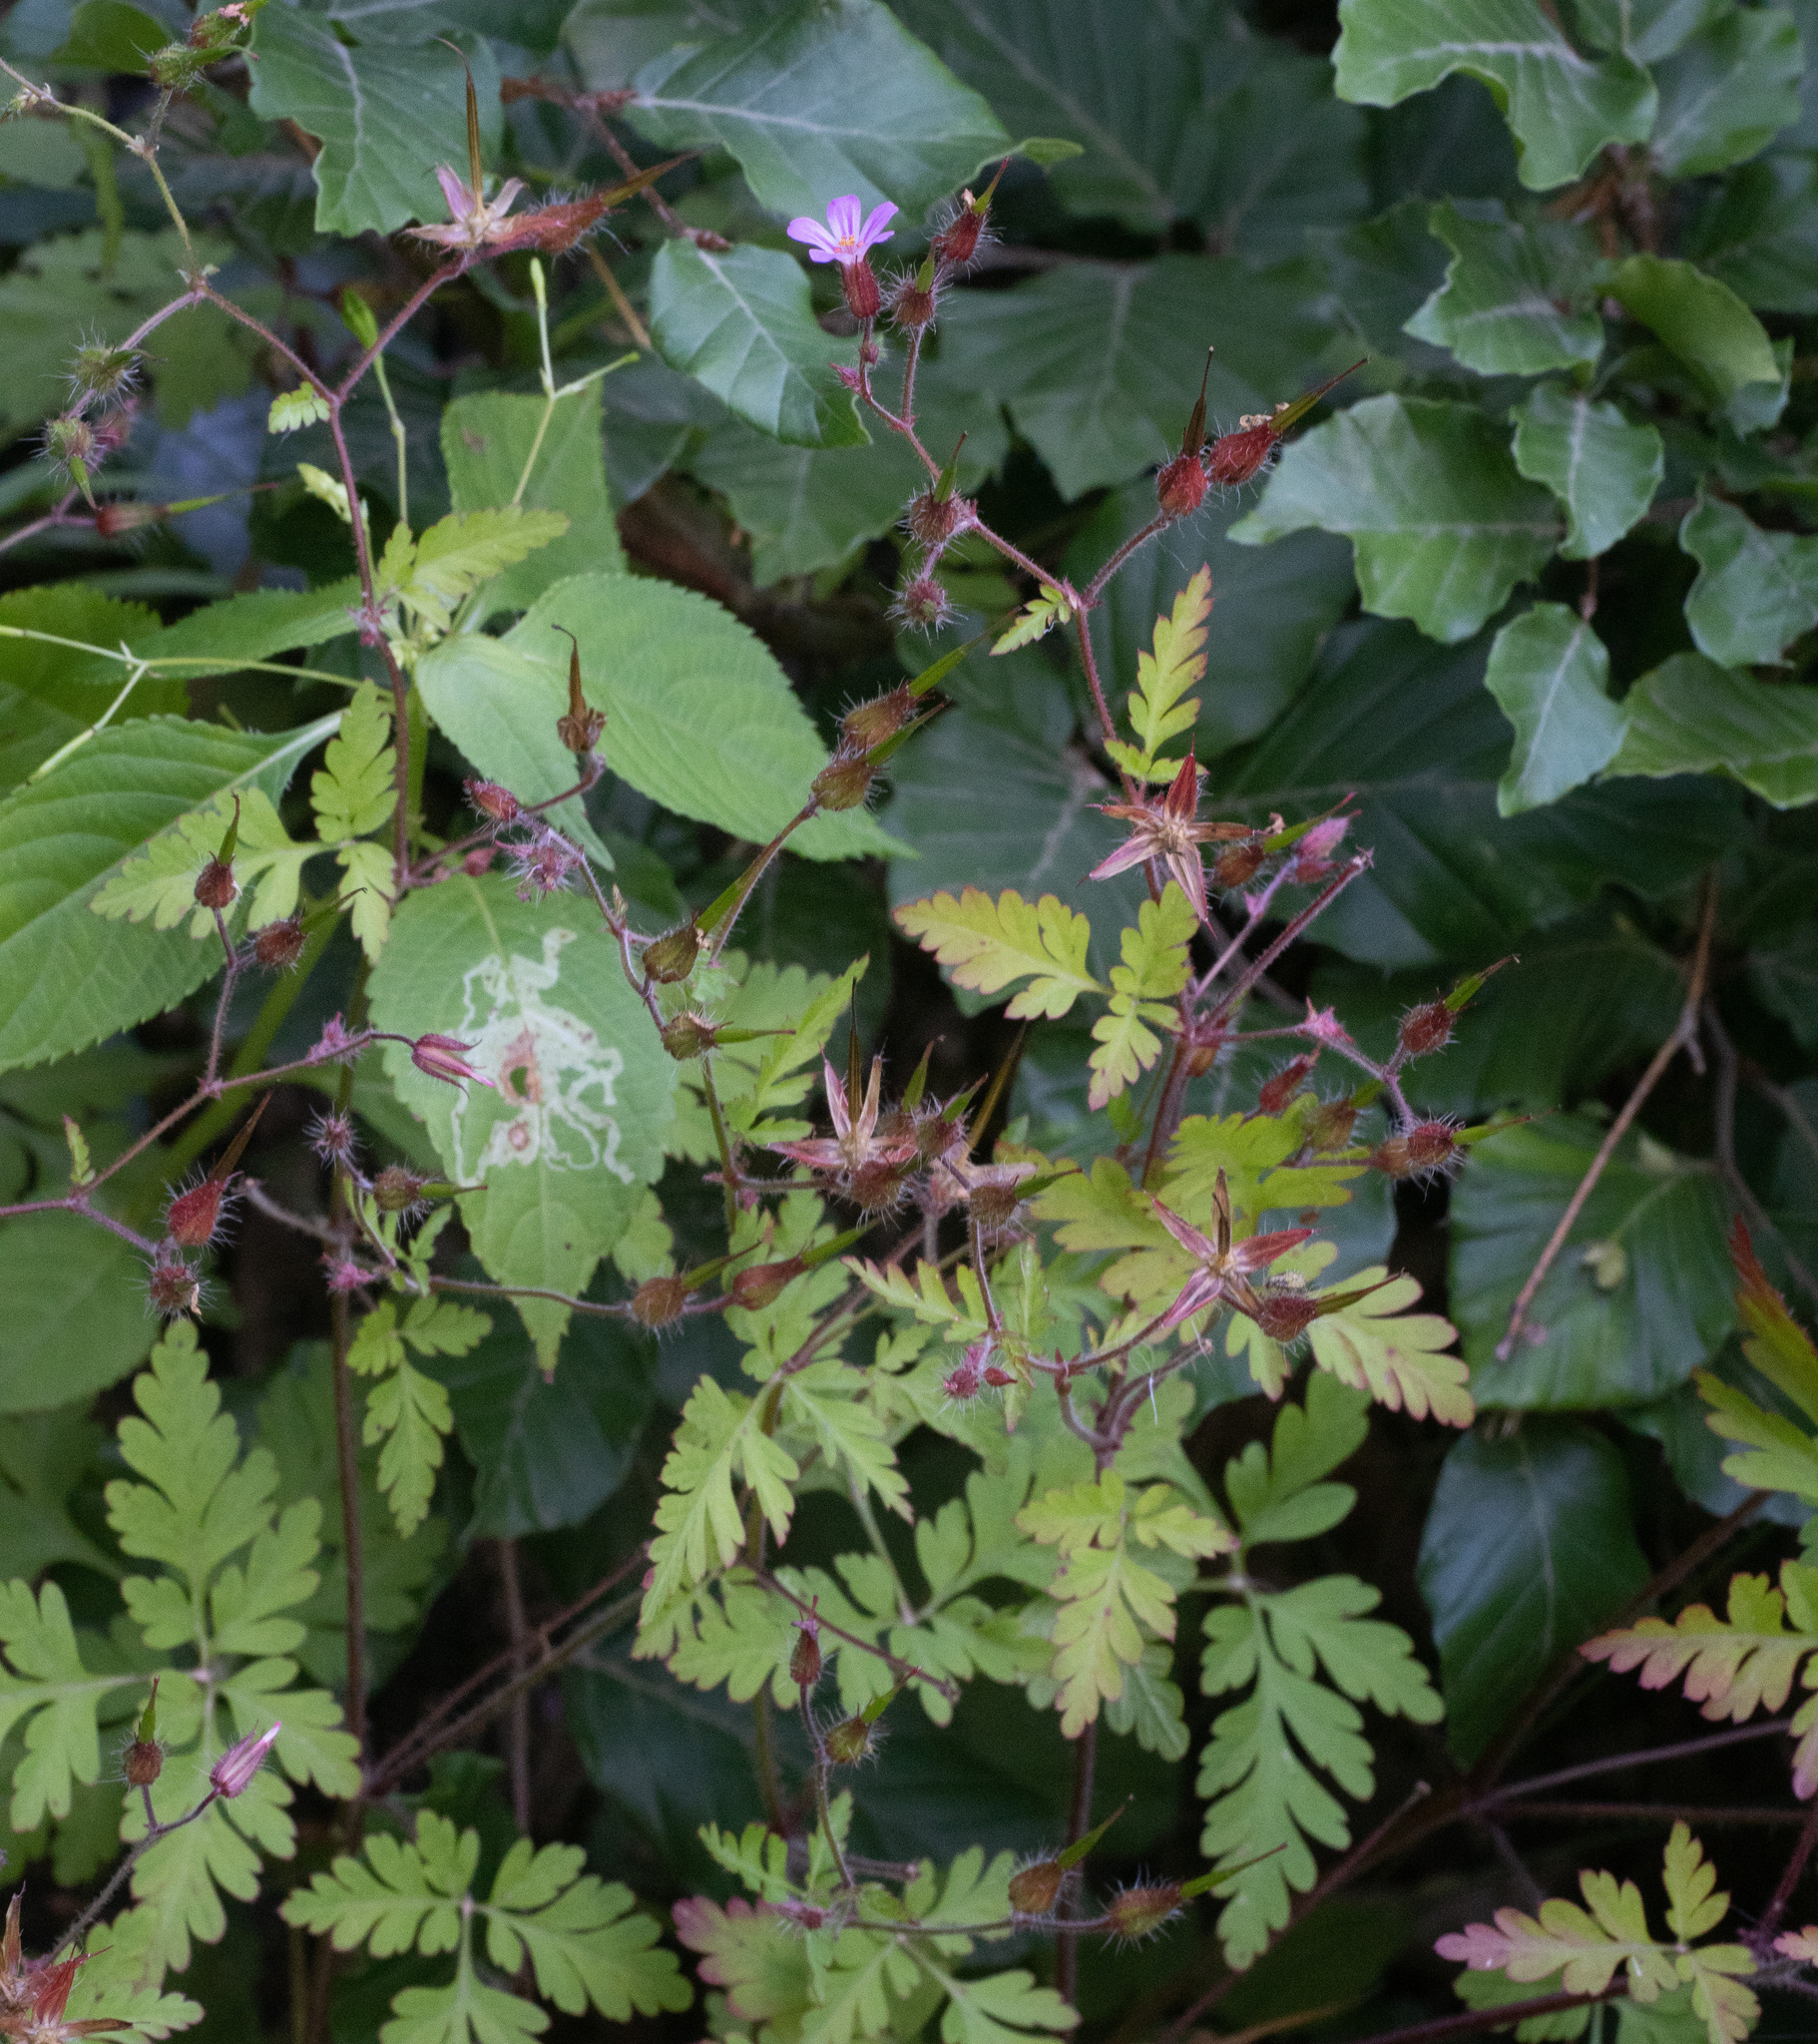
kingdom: Plantae
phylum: Tracheophyta
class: Magnoliopsida
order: Geraniales
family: Geraniaceae
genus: Geranium
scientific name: Geranium robertianum
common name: Herb-robert
